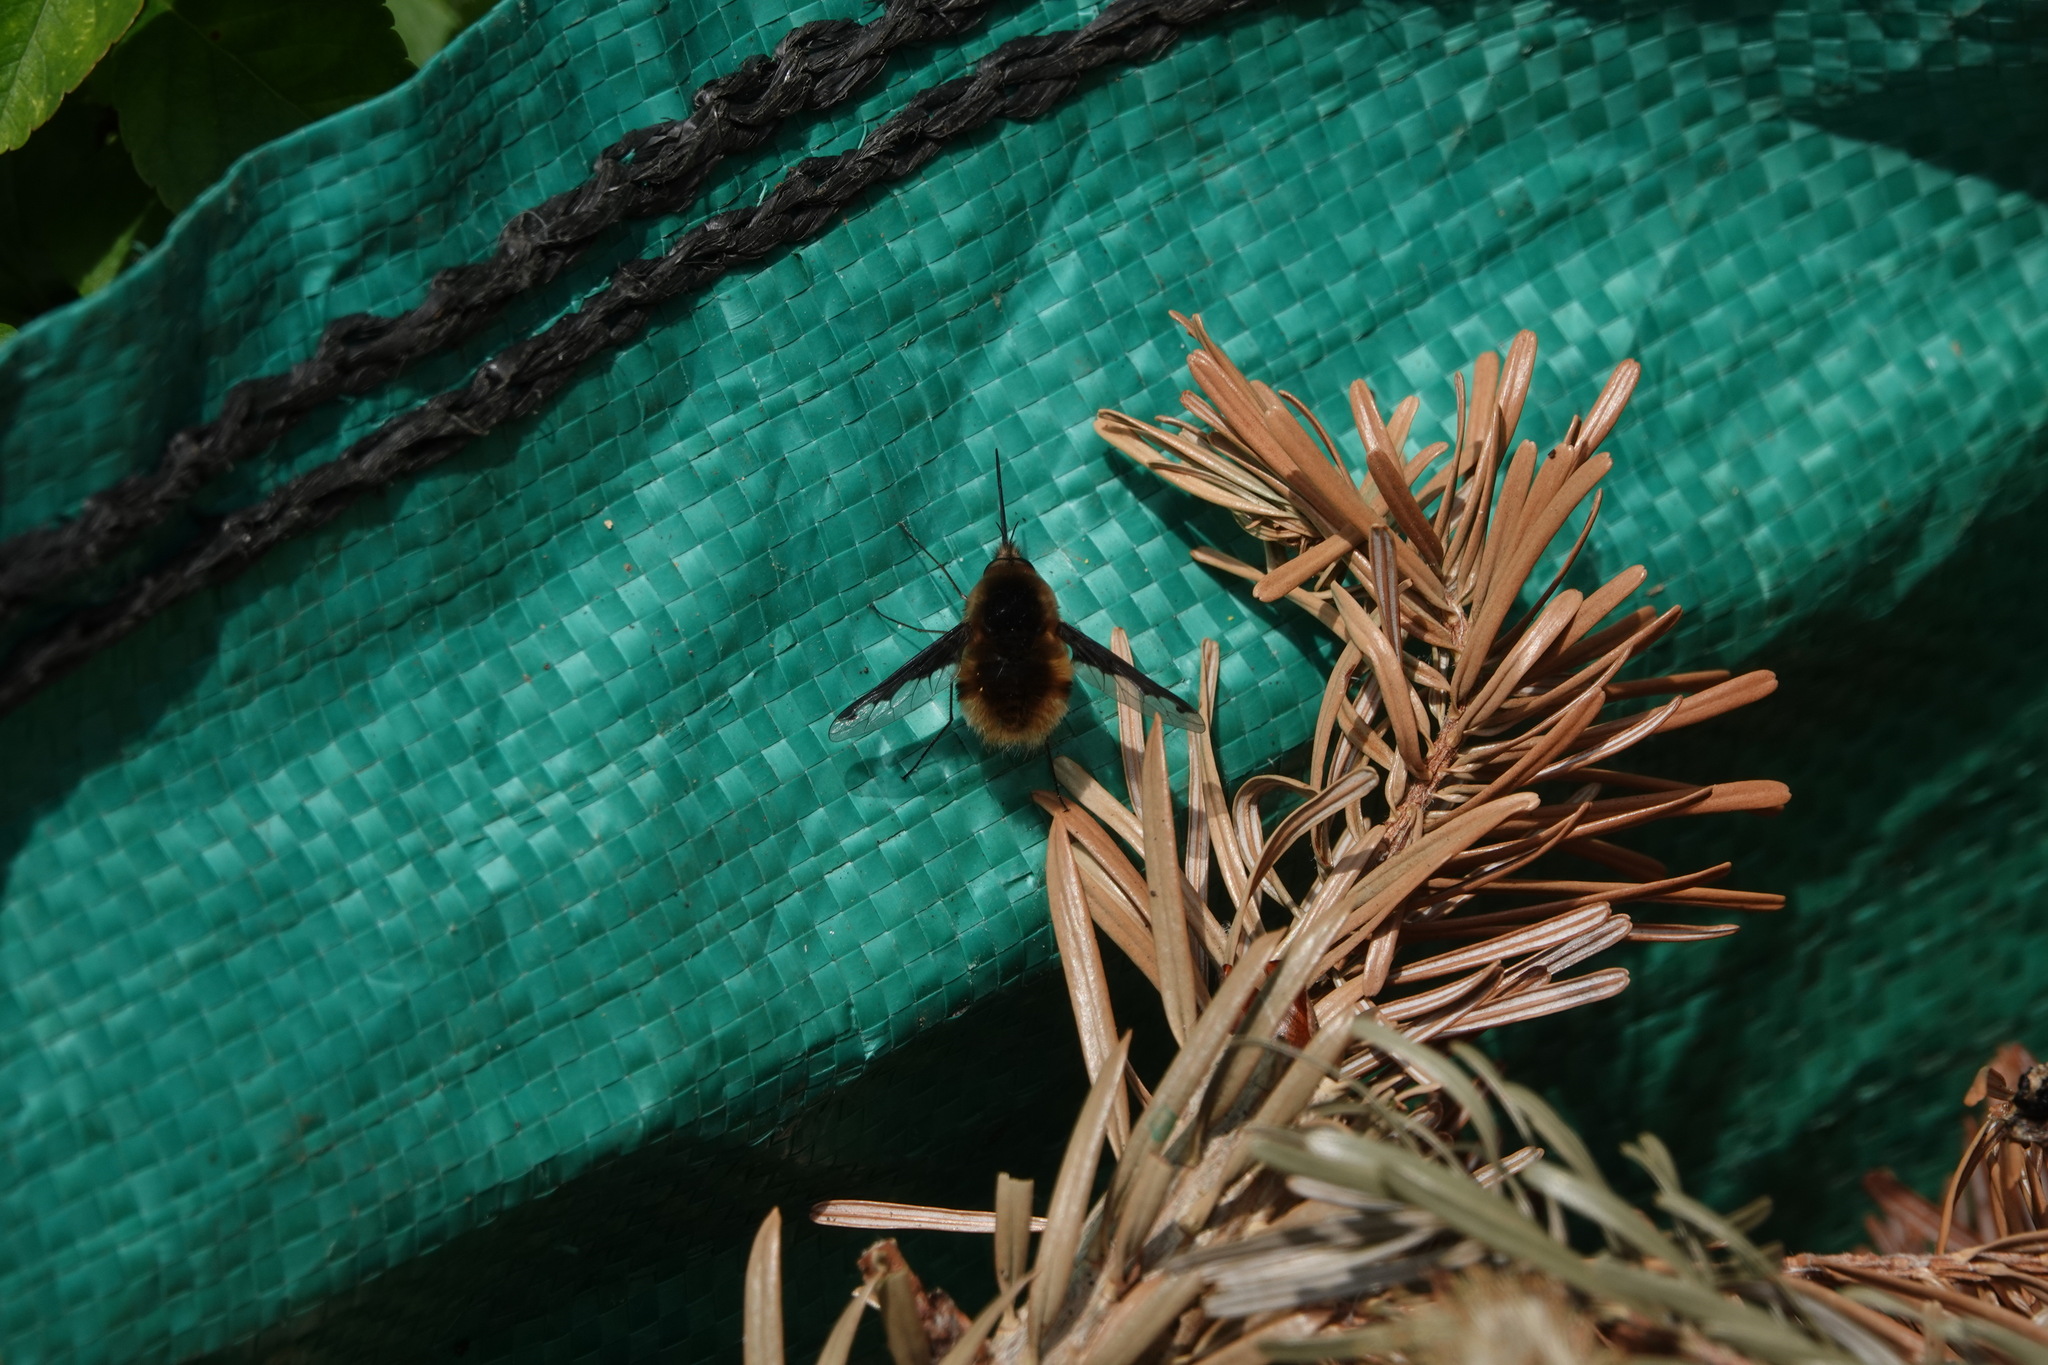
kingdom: Animalia
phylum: Arthropoda
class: Insecta
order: Diptera
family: Bombyliidae
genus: Bombylius
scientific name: Bombylius major
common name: Bee fly
